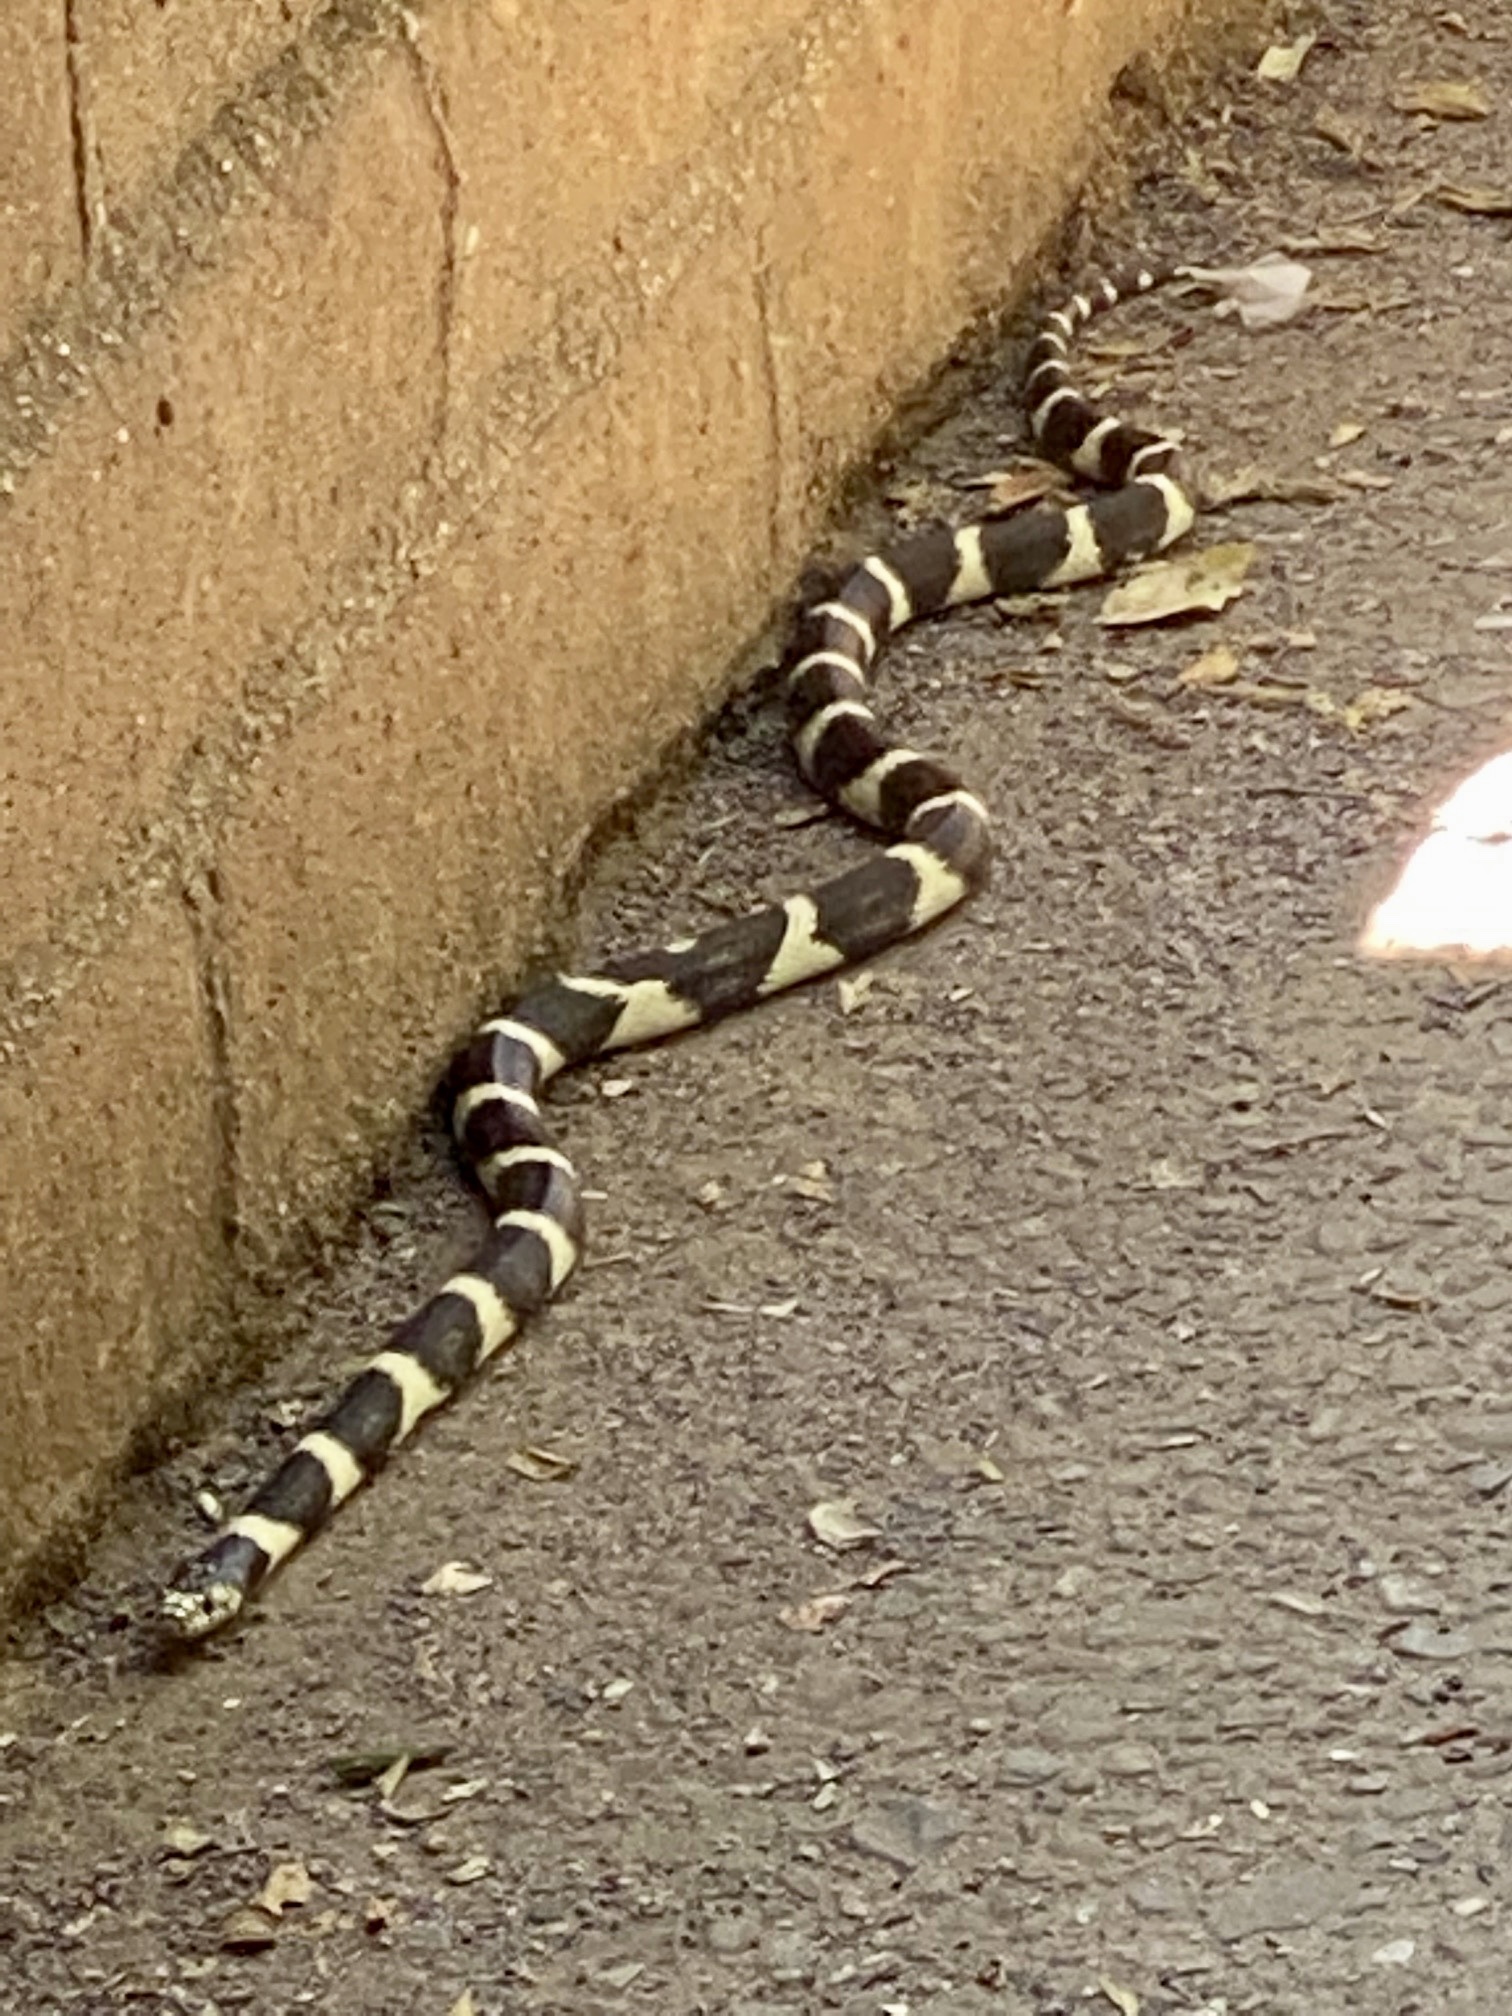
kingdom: Animalia
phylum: Chordata
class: Squamata
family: Colubridae
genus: Lampropeltis
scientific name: Lampropeltis californiae
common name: California kingsnake
